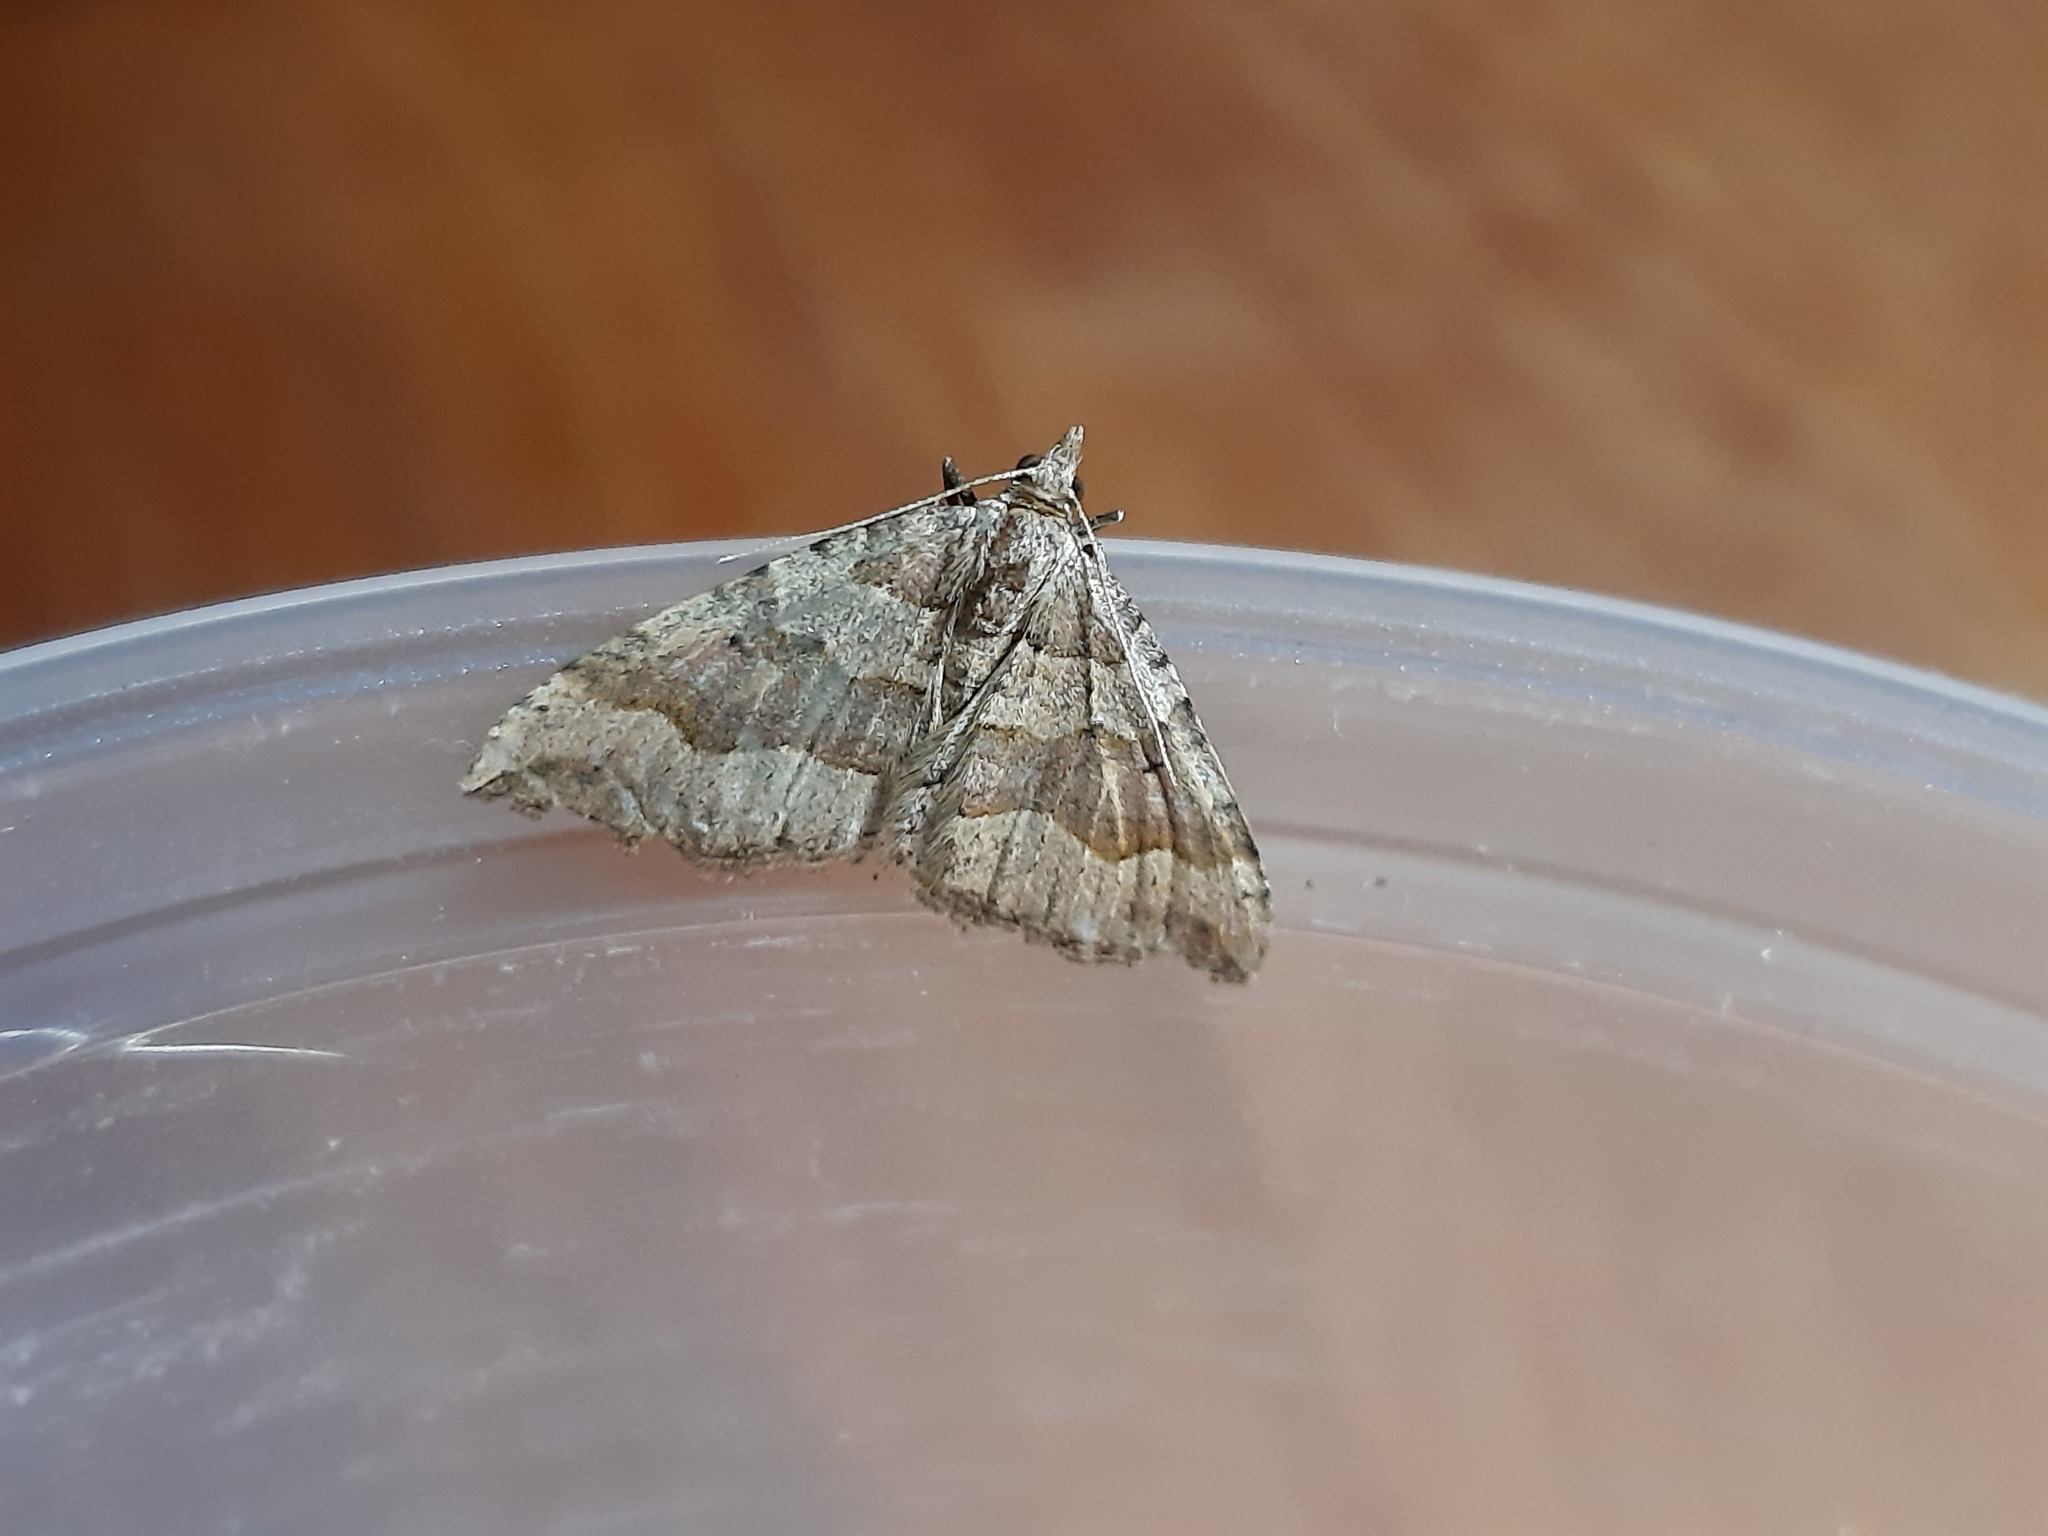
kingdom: Animalia
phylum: Arthropoda
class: Insecta
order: Lepidoptera
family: Geometridae
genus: Epyaxa
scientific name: Epyaxa rosearia
